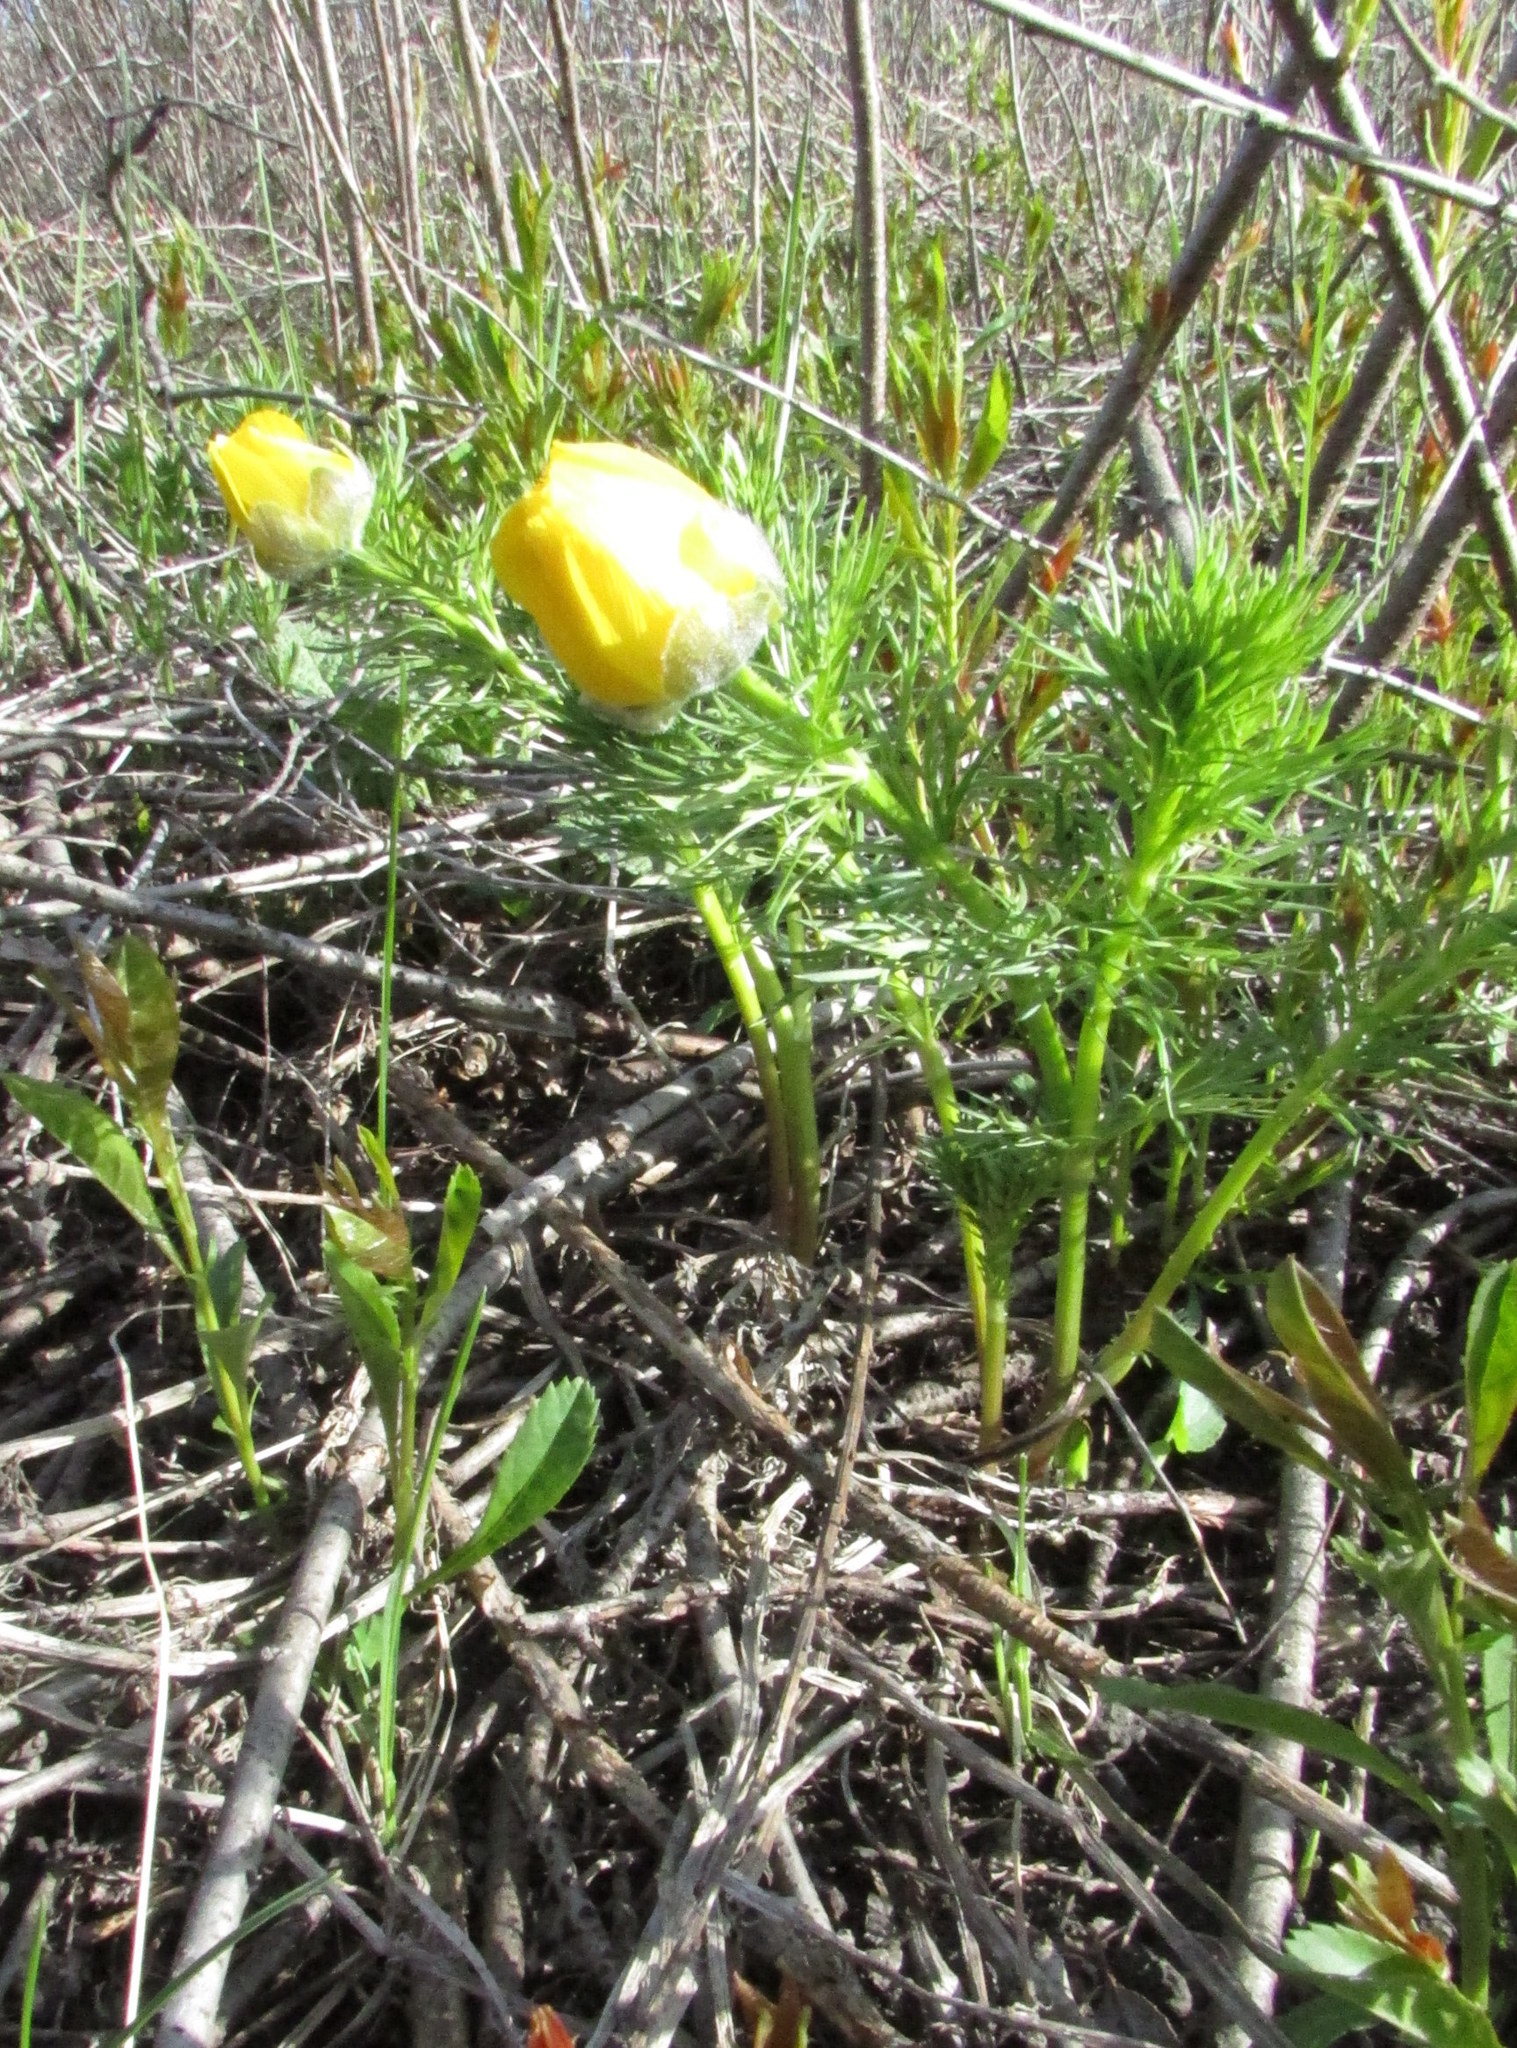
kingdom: Plantae
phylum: Tracheophyta
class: Magnoliopsida
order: Ranunculales
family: Ranunculaceae
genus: Adonis
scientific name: Adonis vernalis
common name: Yellow pheasants-eye
